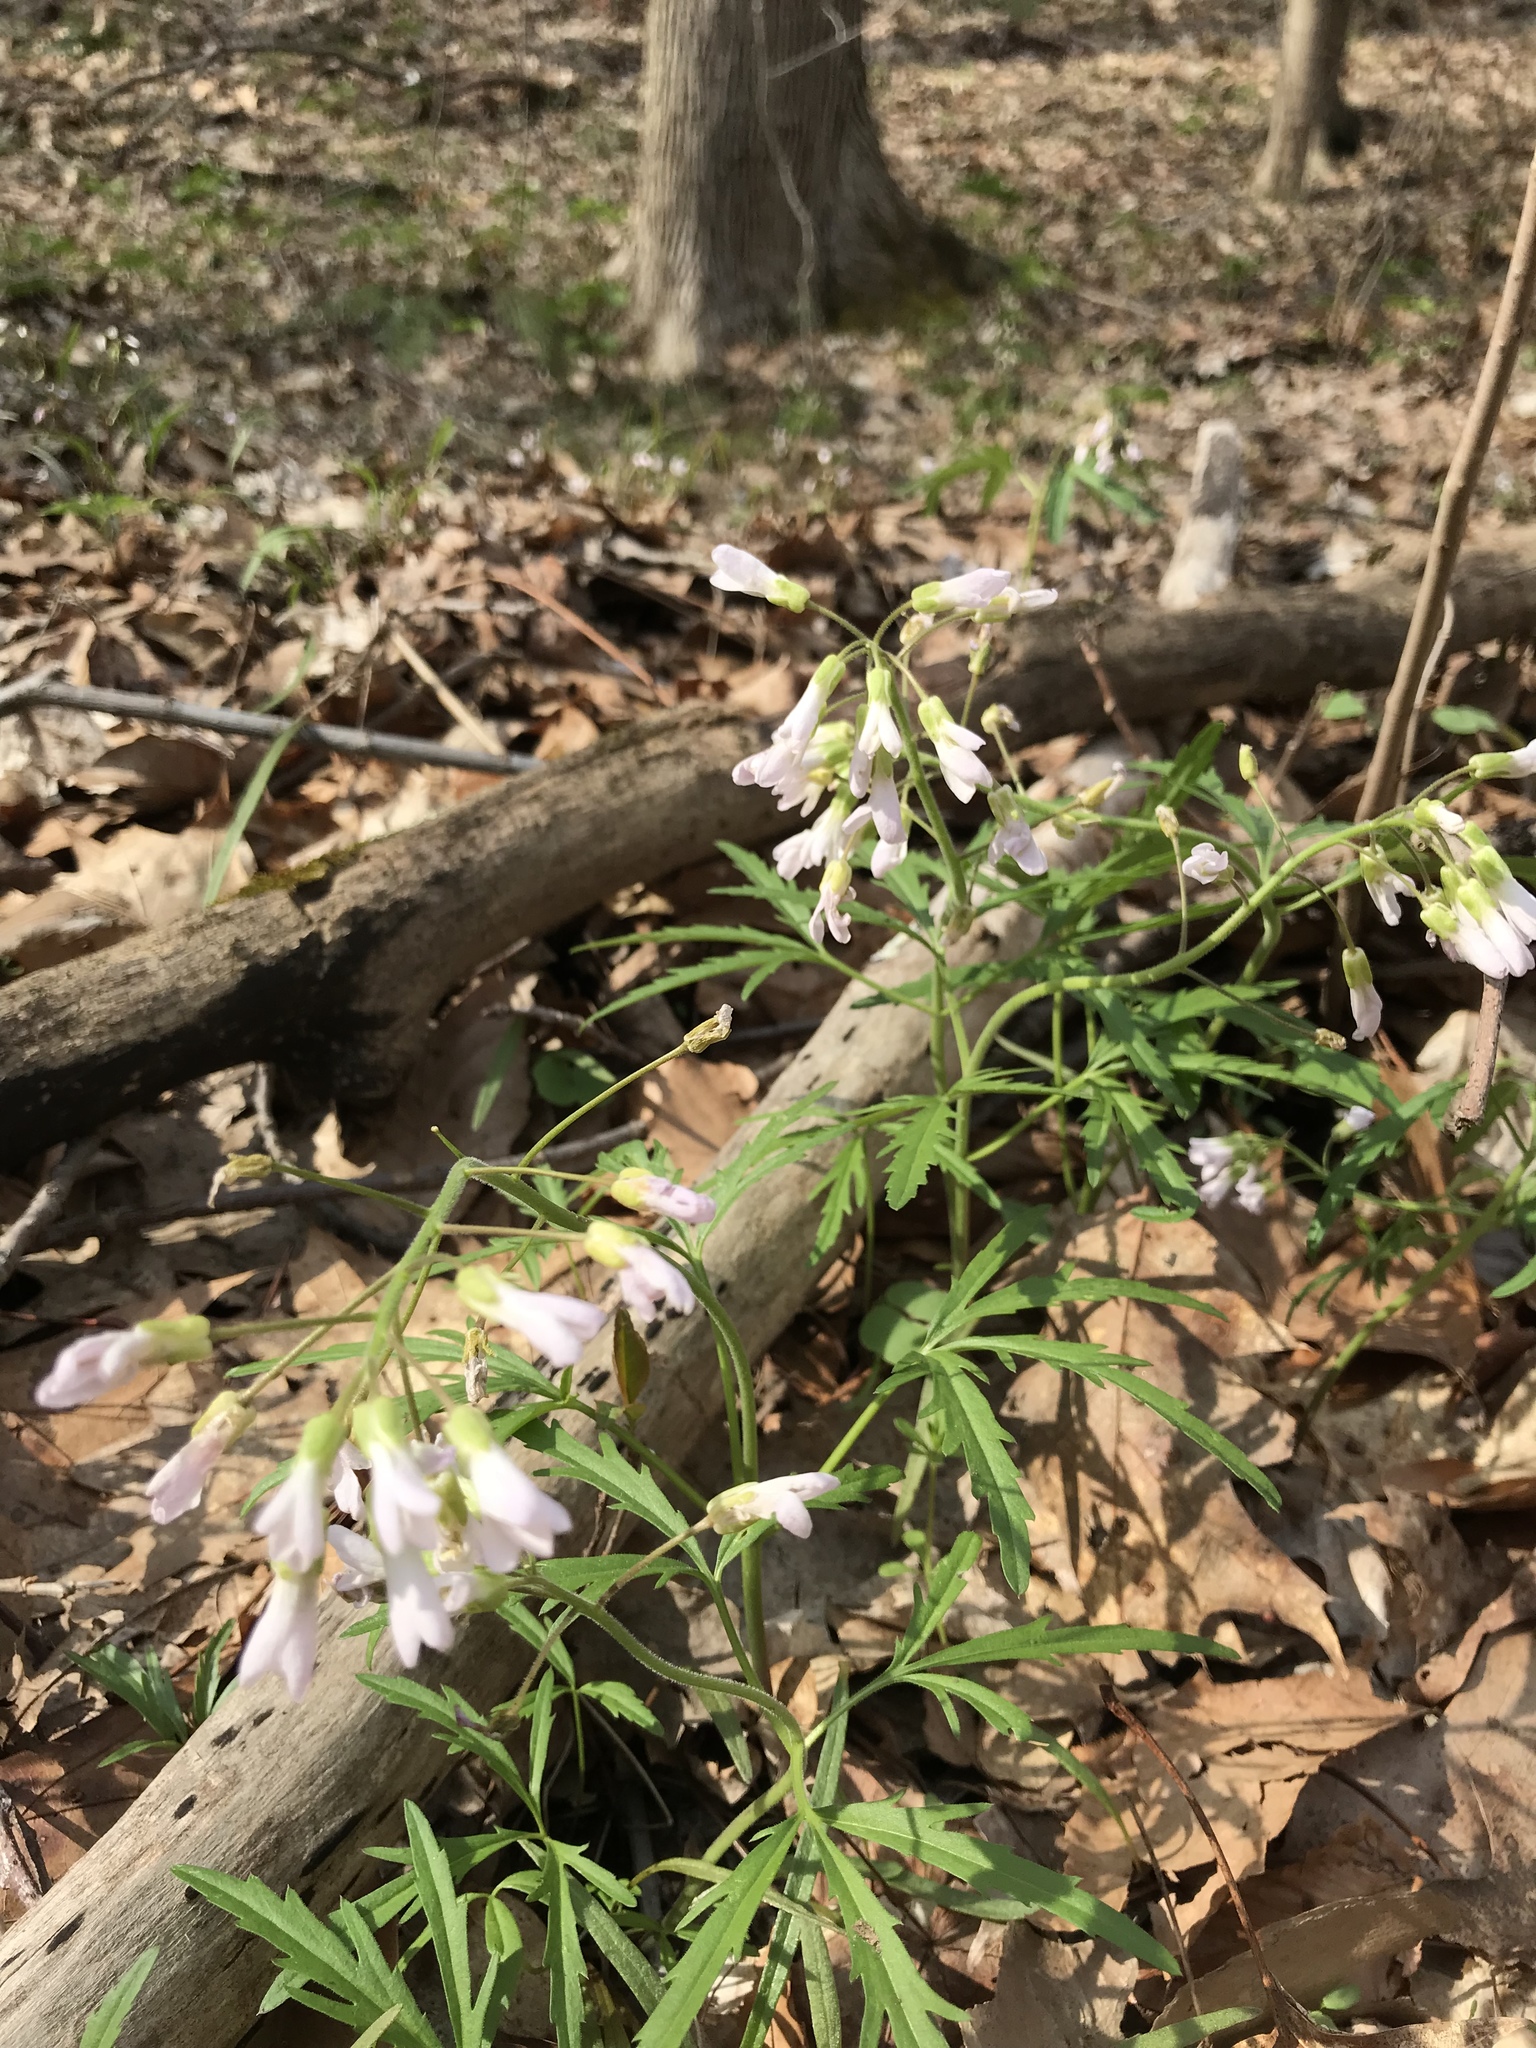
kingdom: Plantae
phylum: Tracheophyta
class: Magnoliopsida
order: Brassicales
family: Brassicaceae
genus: Cardamine
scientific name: Cardamine concatenata
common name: Cut-leaf toothcup
